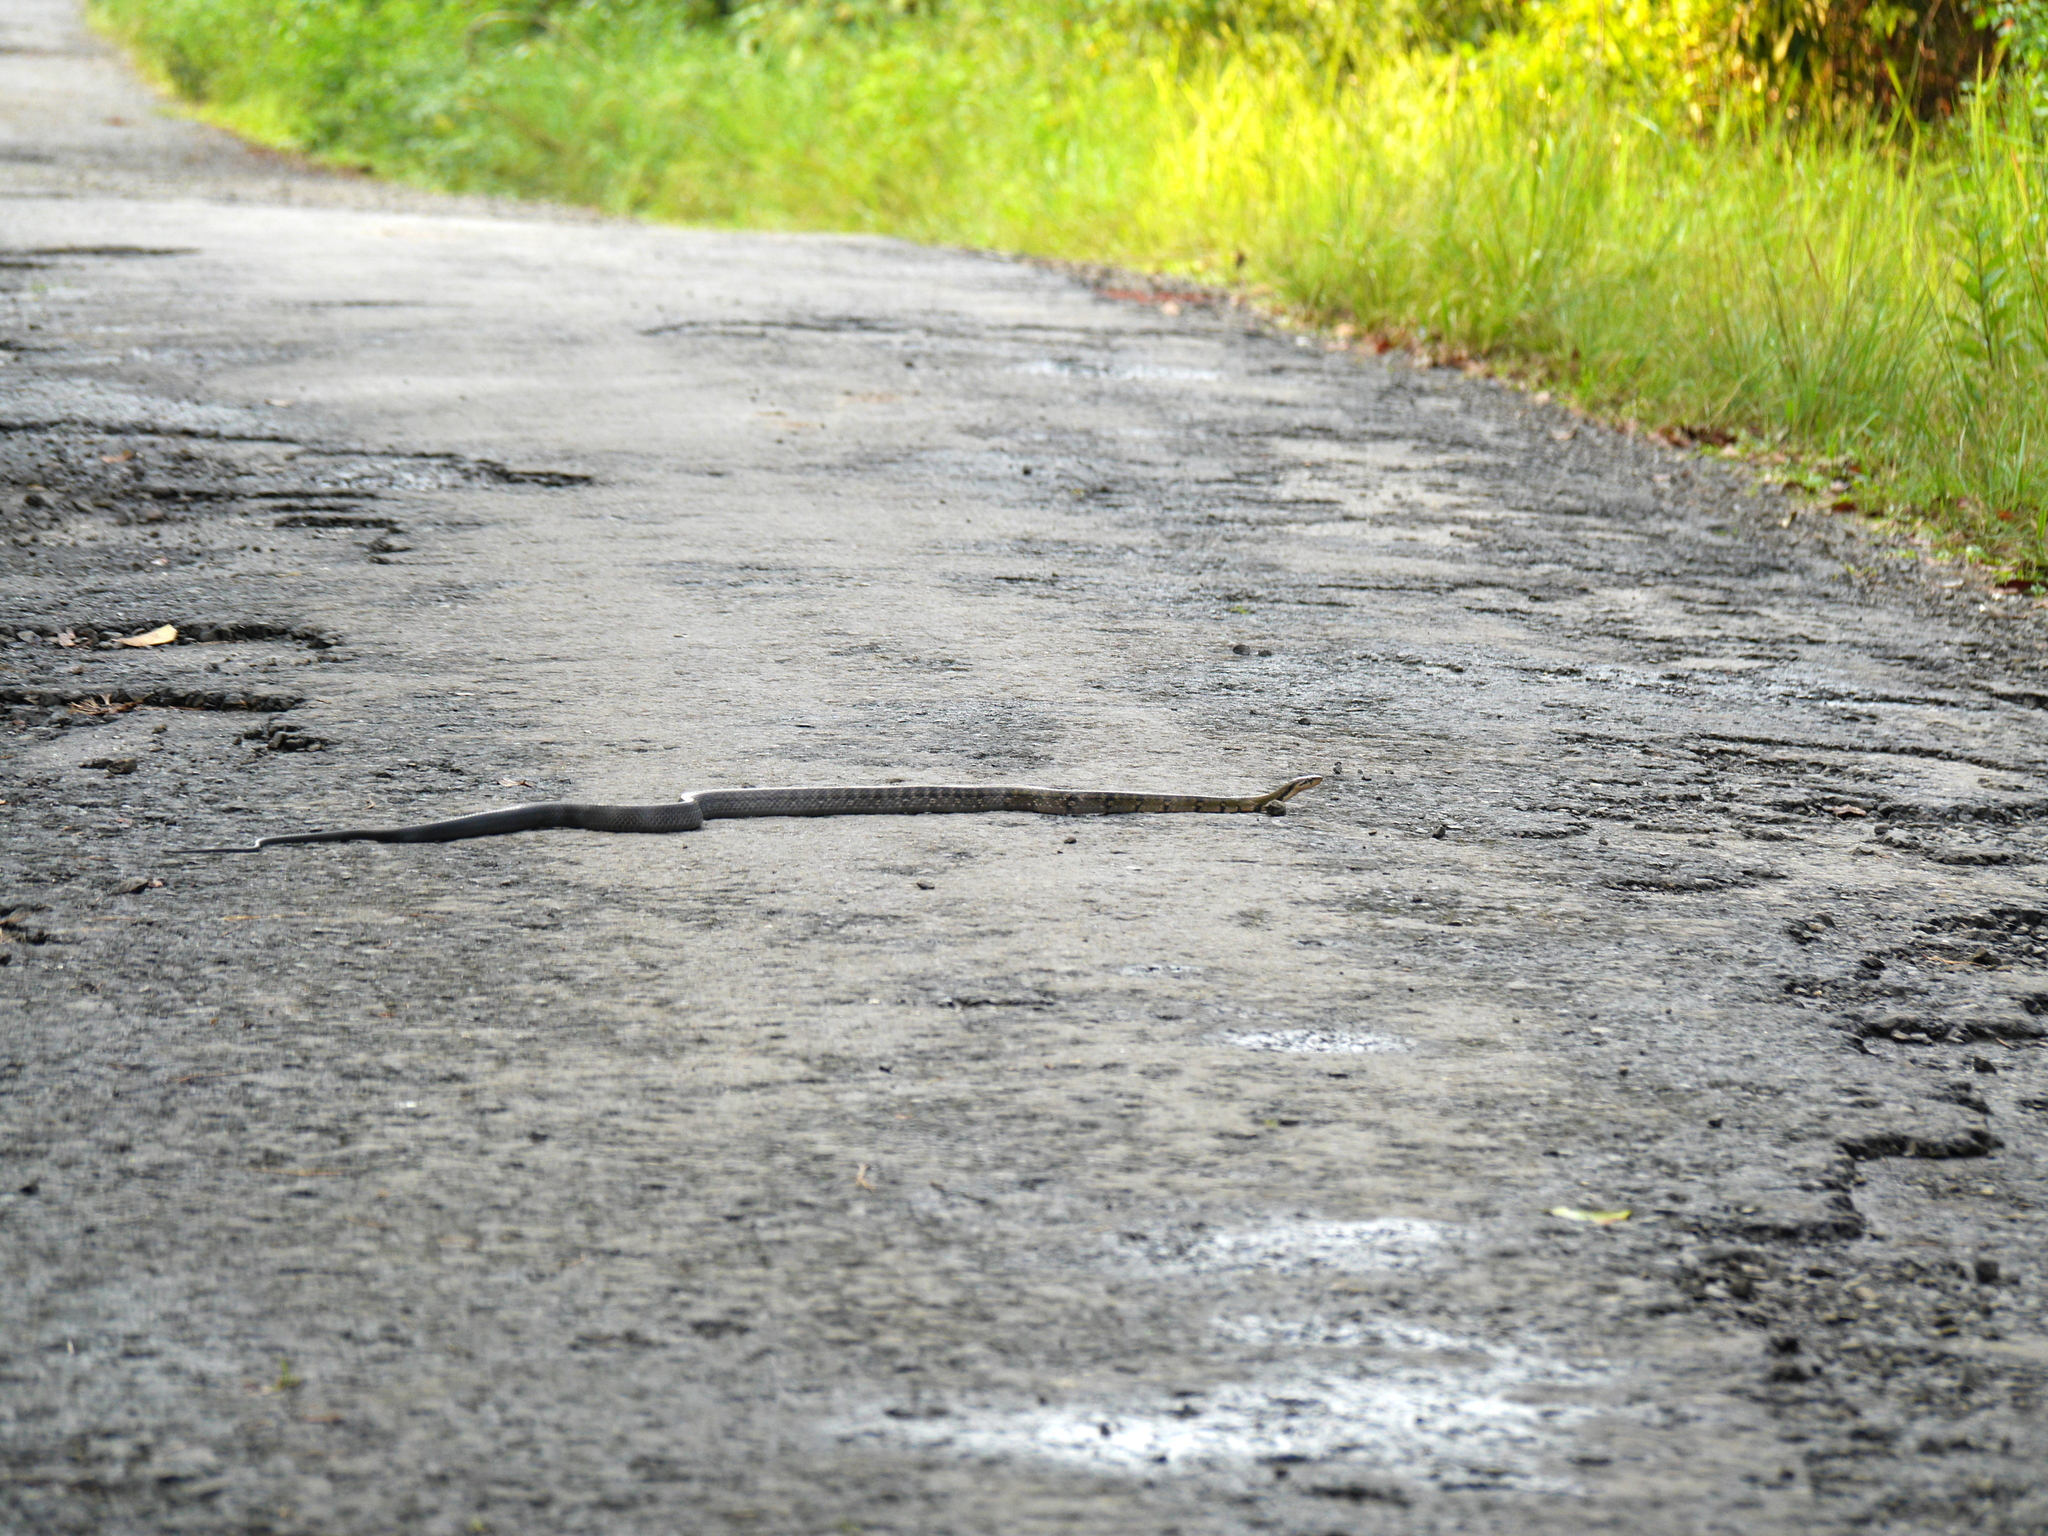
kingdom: Animalia
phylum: Chordata
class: Squamata
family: Colubridae
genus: Coelognathus
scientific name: Coelognathus flavolineatus
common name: Black copper rat snake
